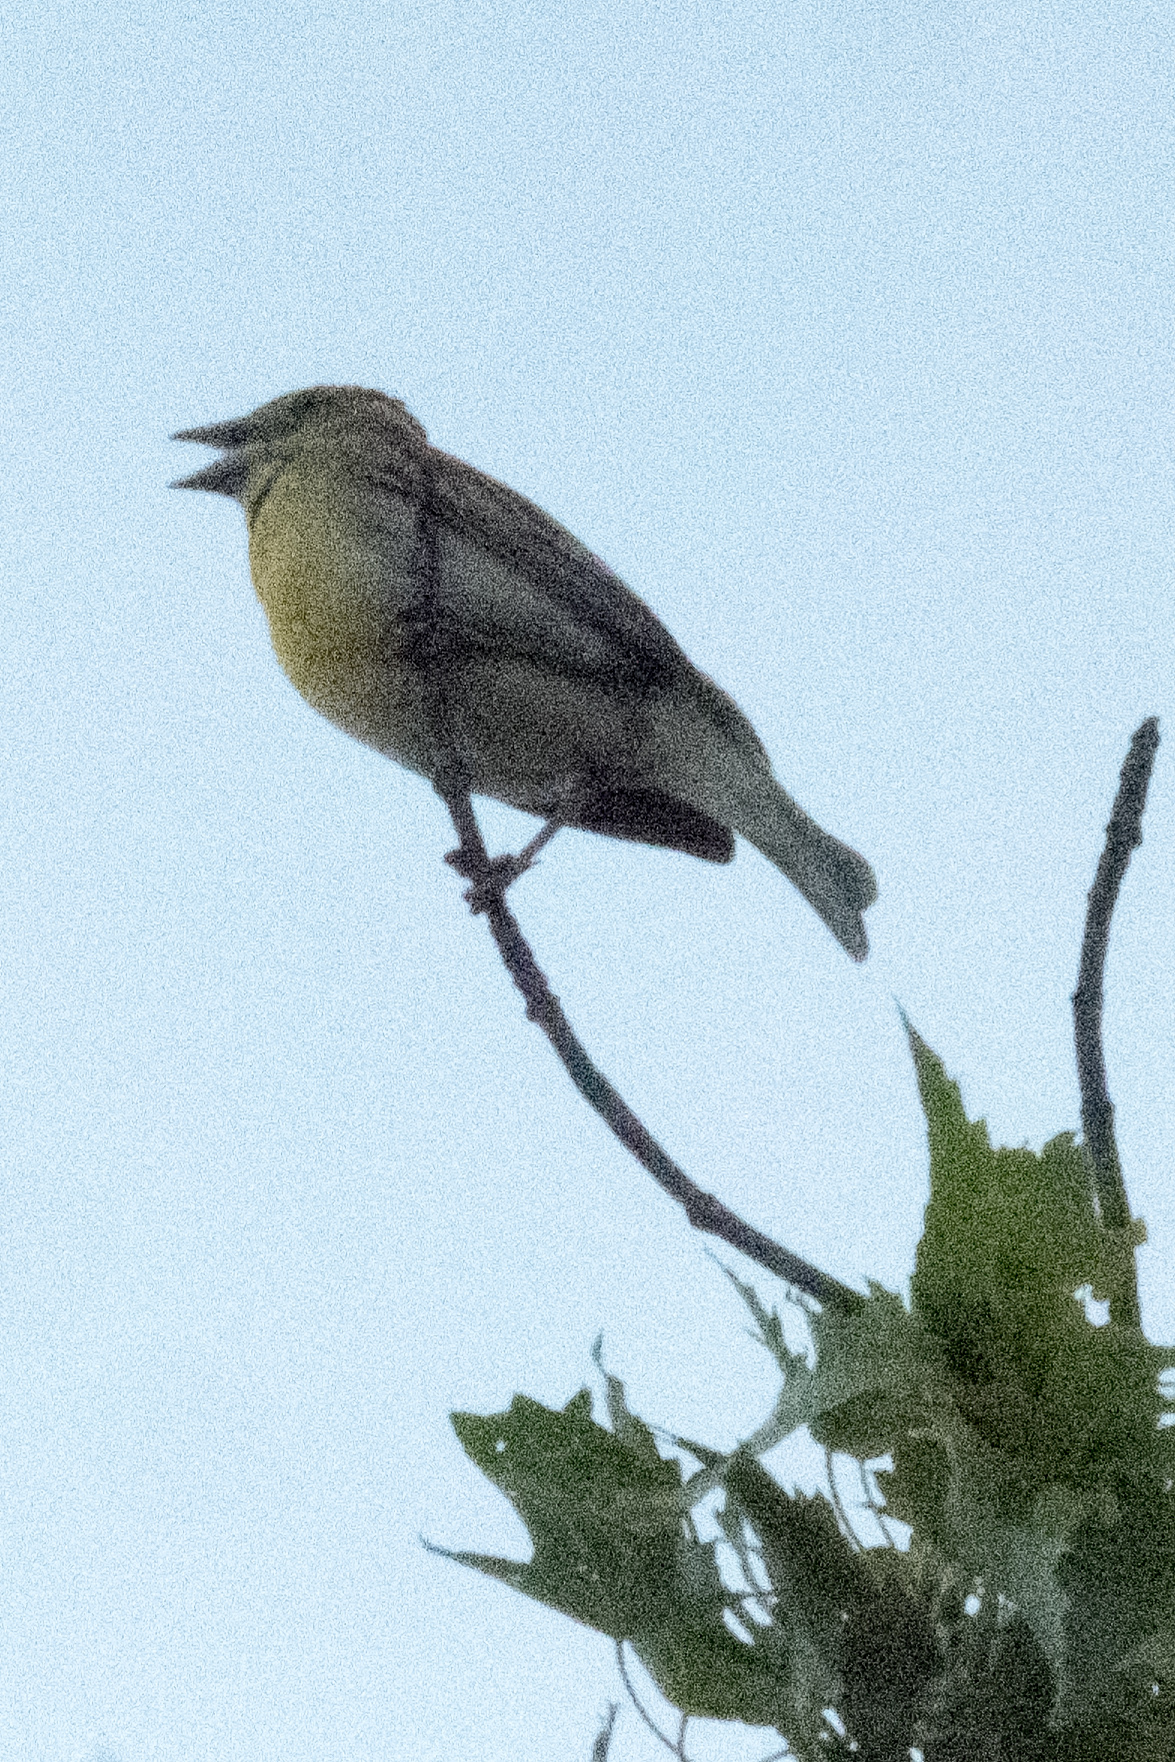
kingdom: Animalia
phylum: Chordata
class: Aves
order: Passeriformes
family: Cardinalidae
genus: Spiza
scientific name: Spiza americana
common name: Dickcissel
